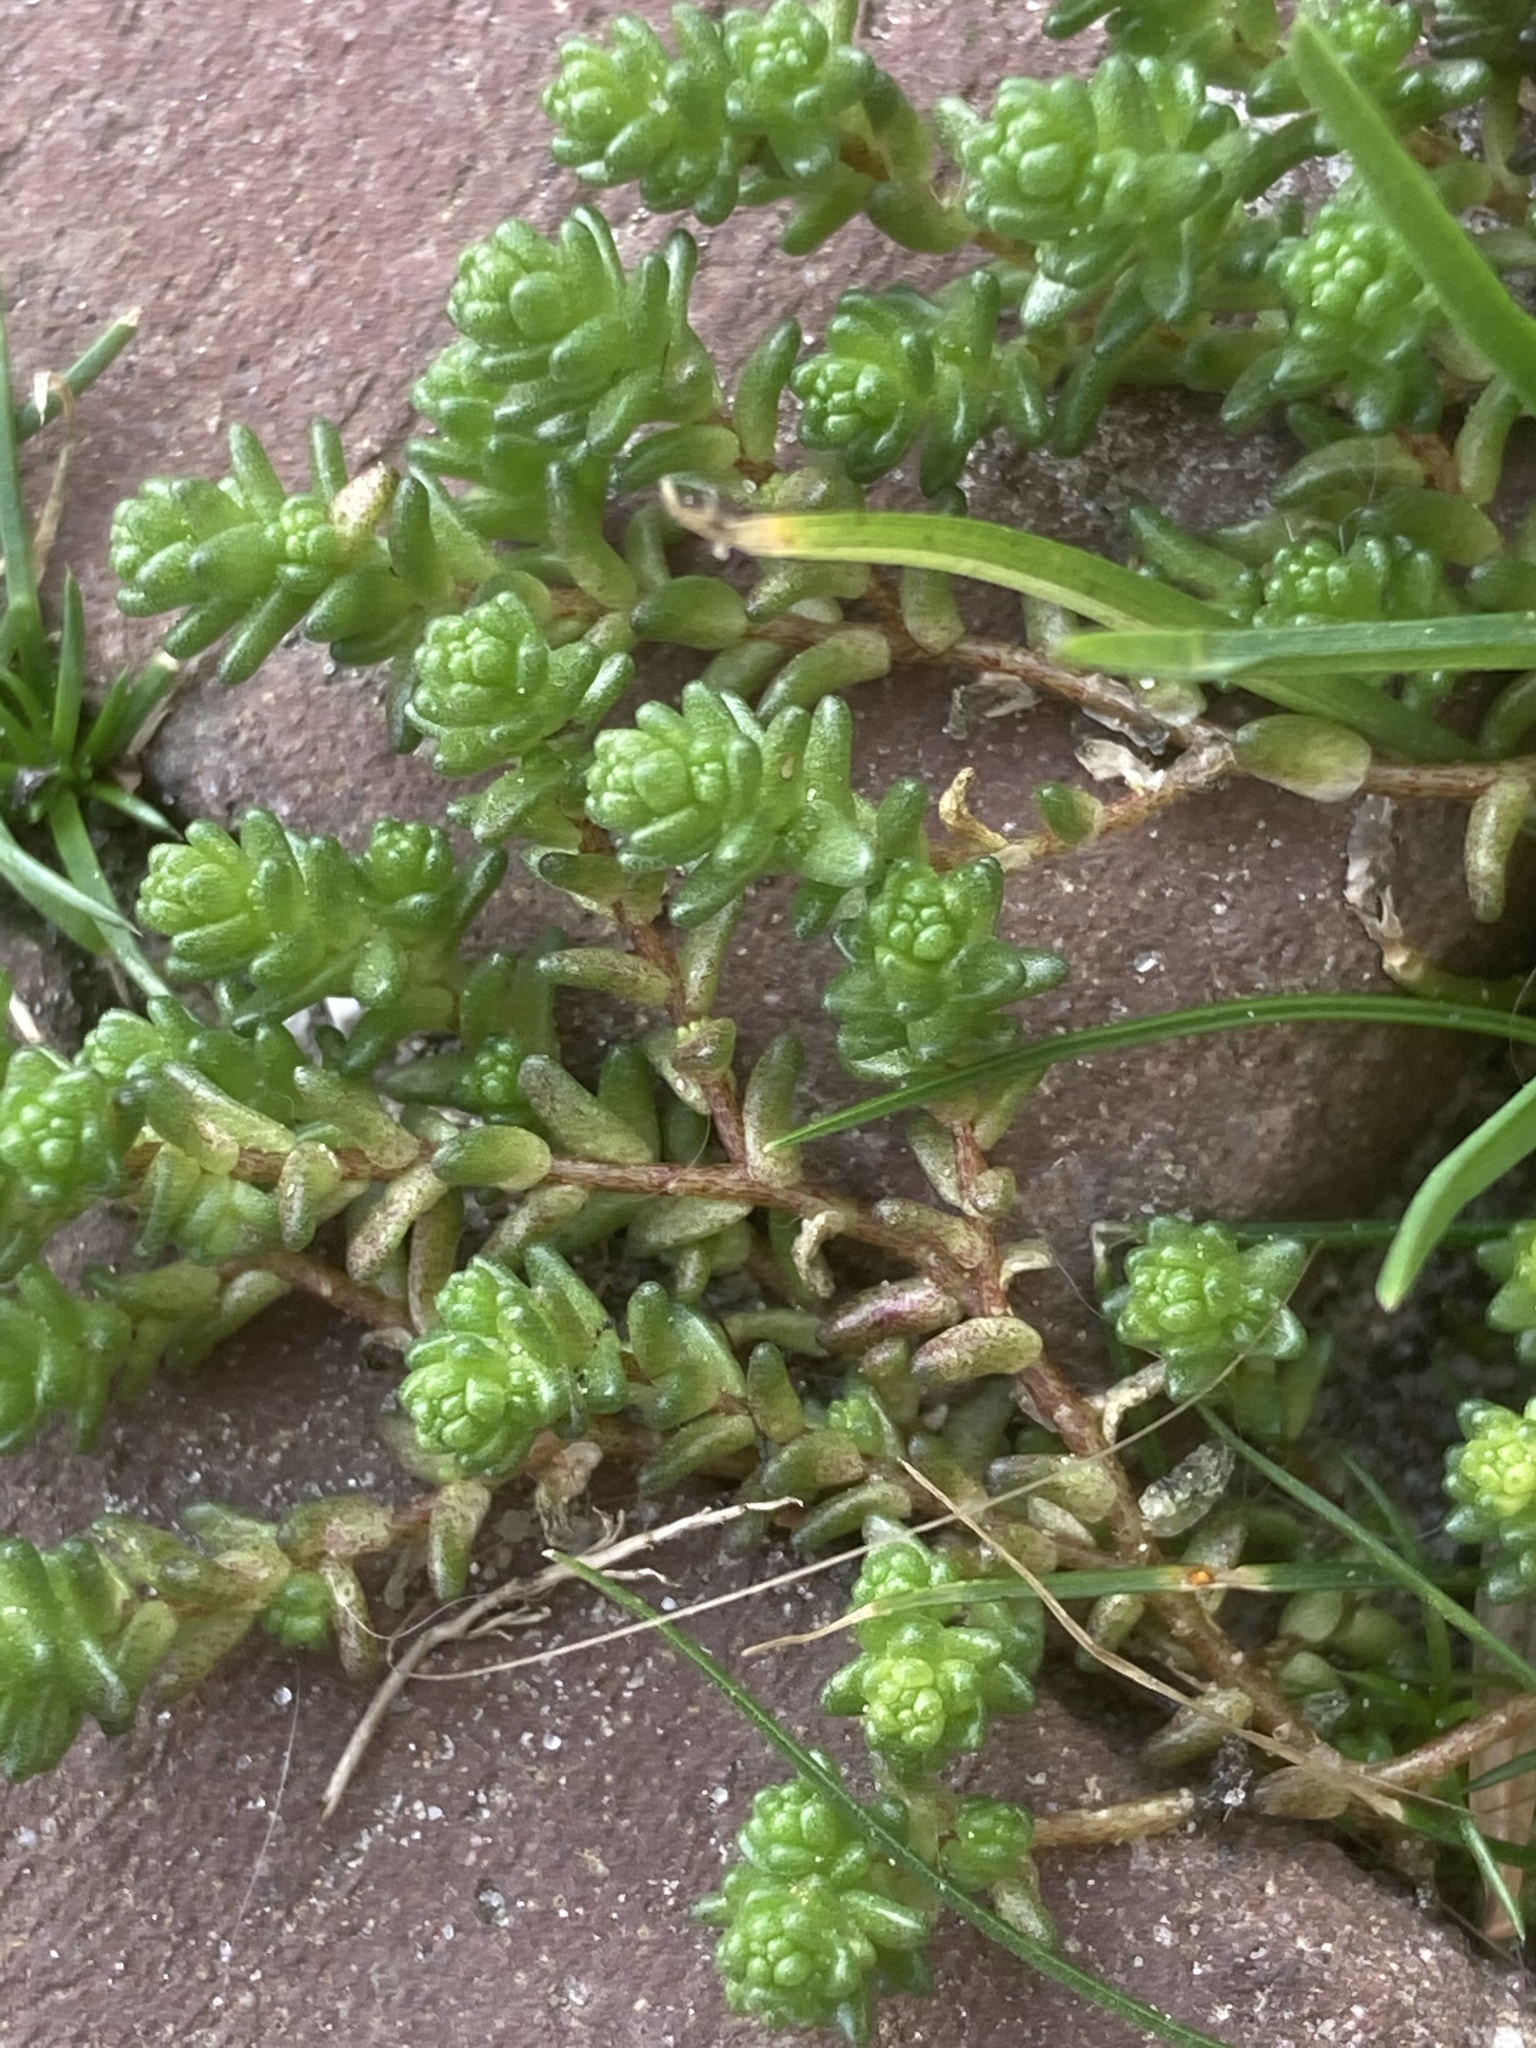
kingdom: Plantae
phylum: Tracheophyta
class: Magnoliopsida
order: Saxifragales
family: Crassulaceae
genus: Sedum
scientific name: Sedum acre
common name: Biting stonecrop
